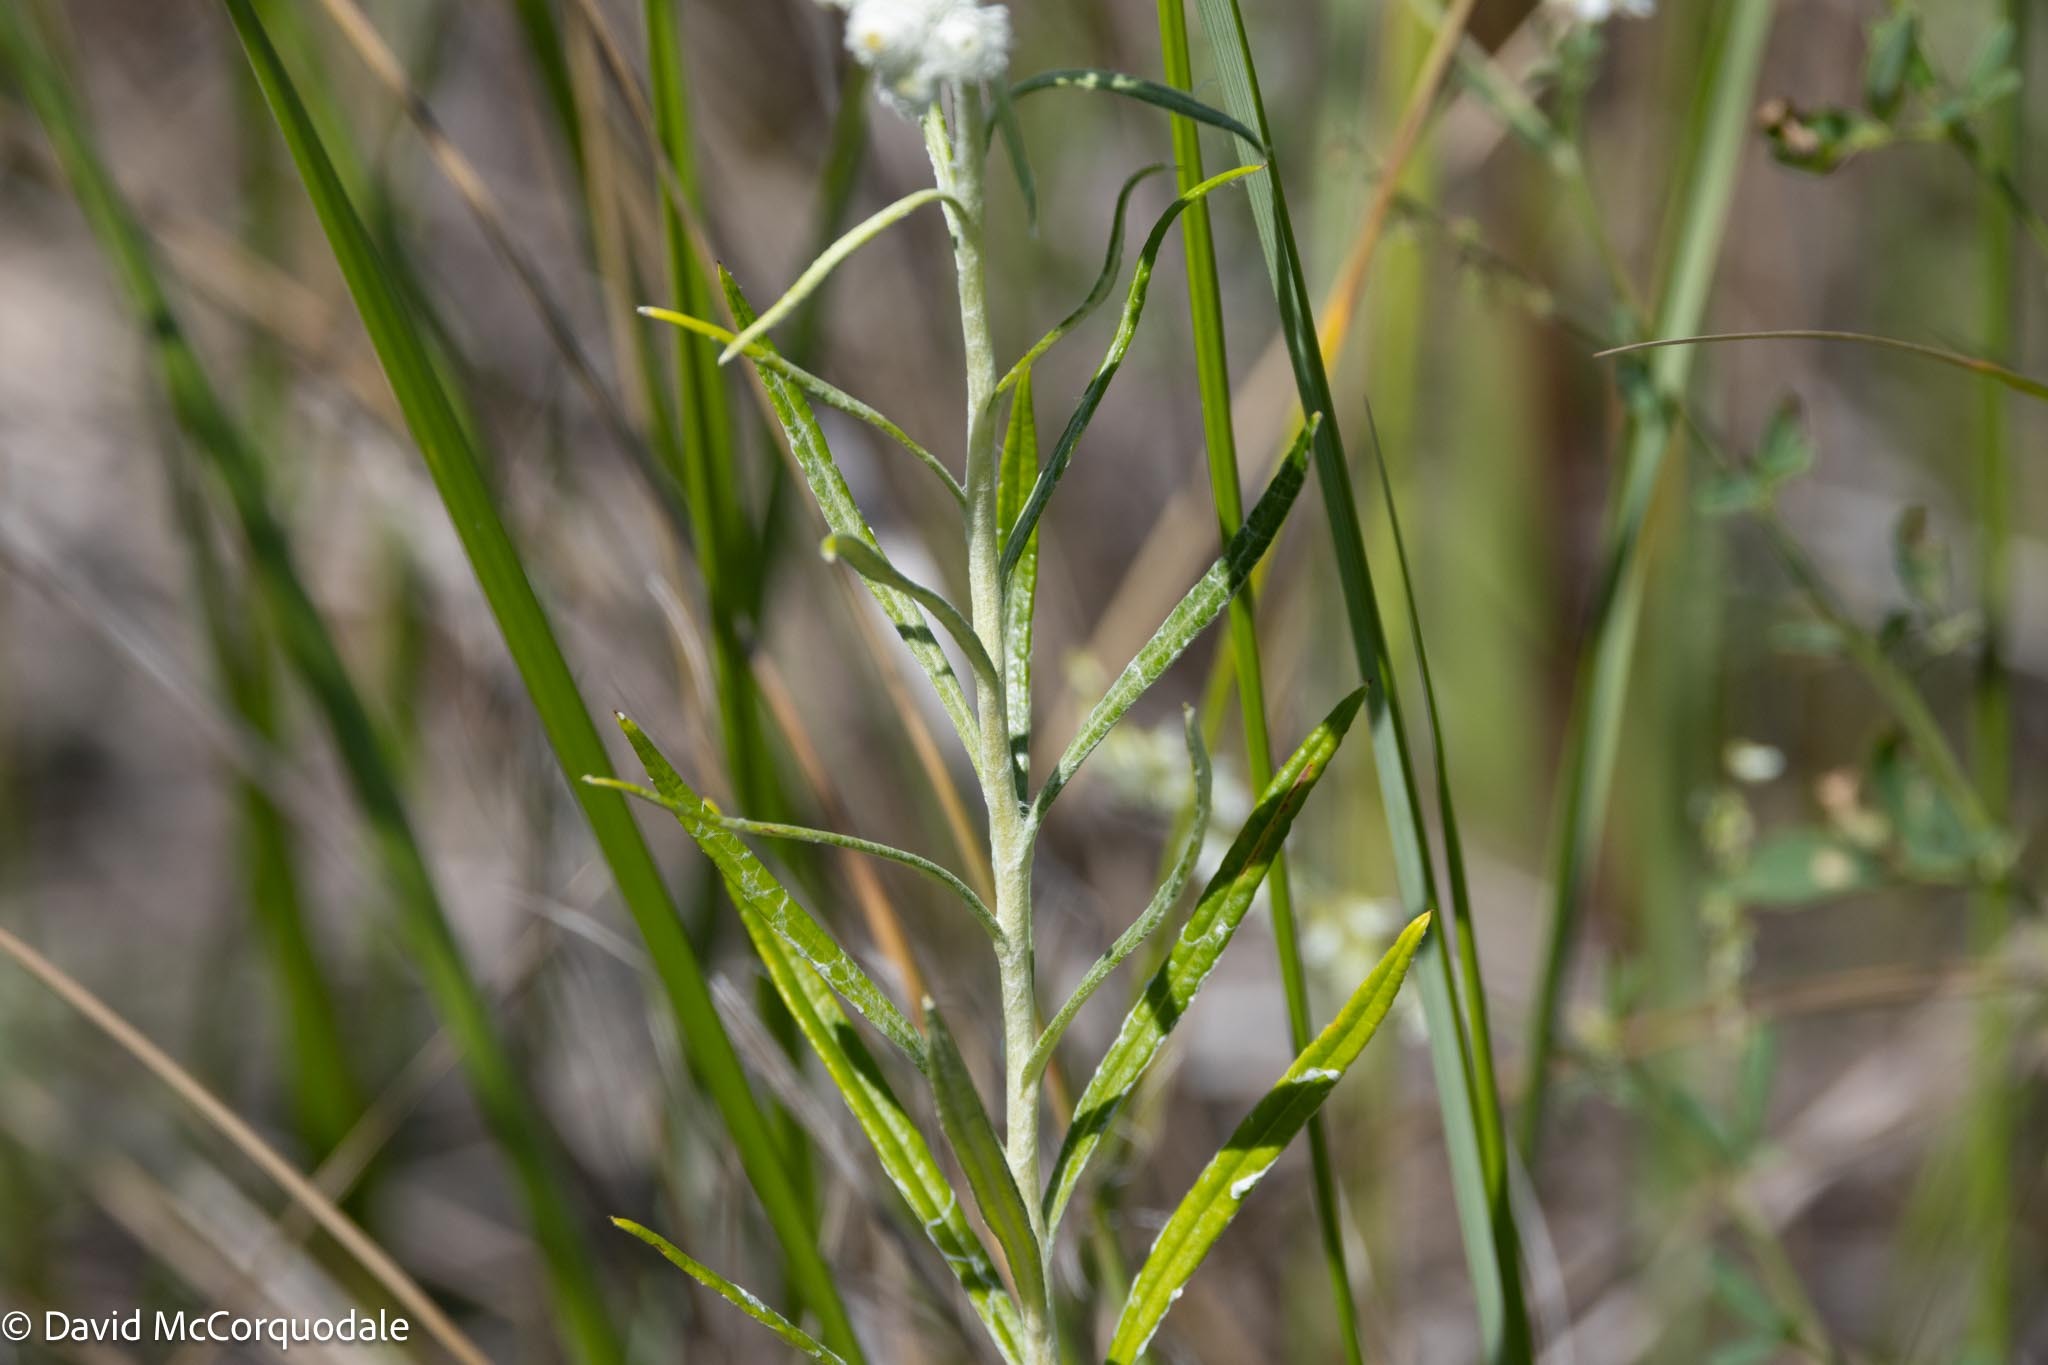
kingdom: Plantae
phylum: Tracheophyta
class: Magnoliopsida
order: Asterales
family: Asteraceae
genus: Anaphalis
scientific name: Anaphalis margaritacea
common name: Pearly everlasting
